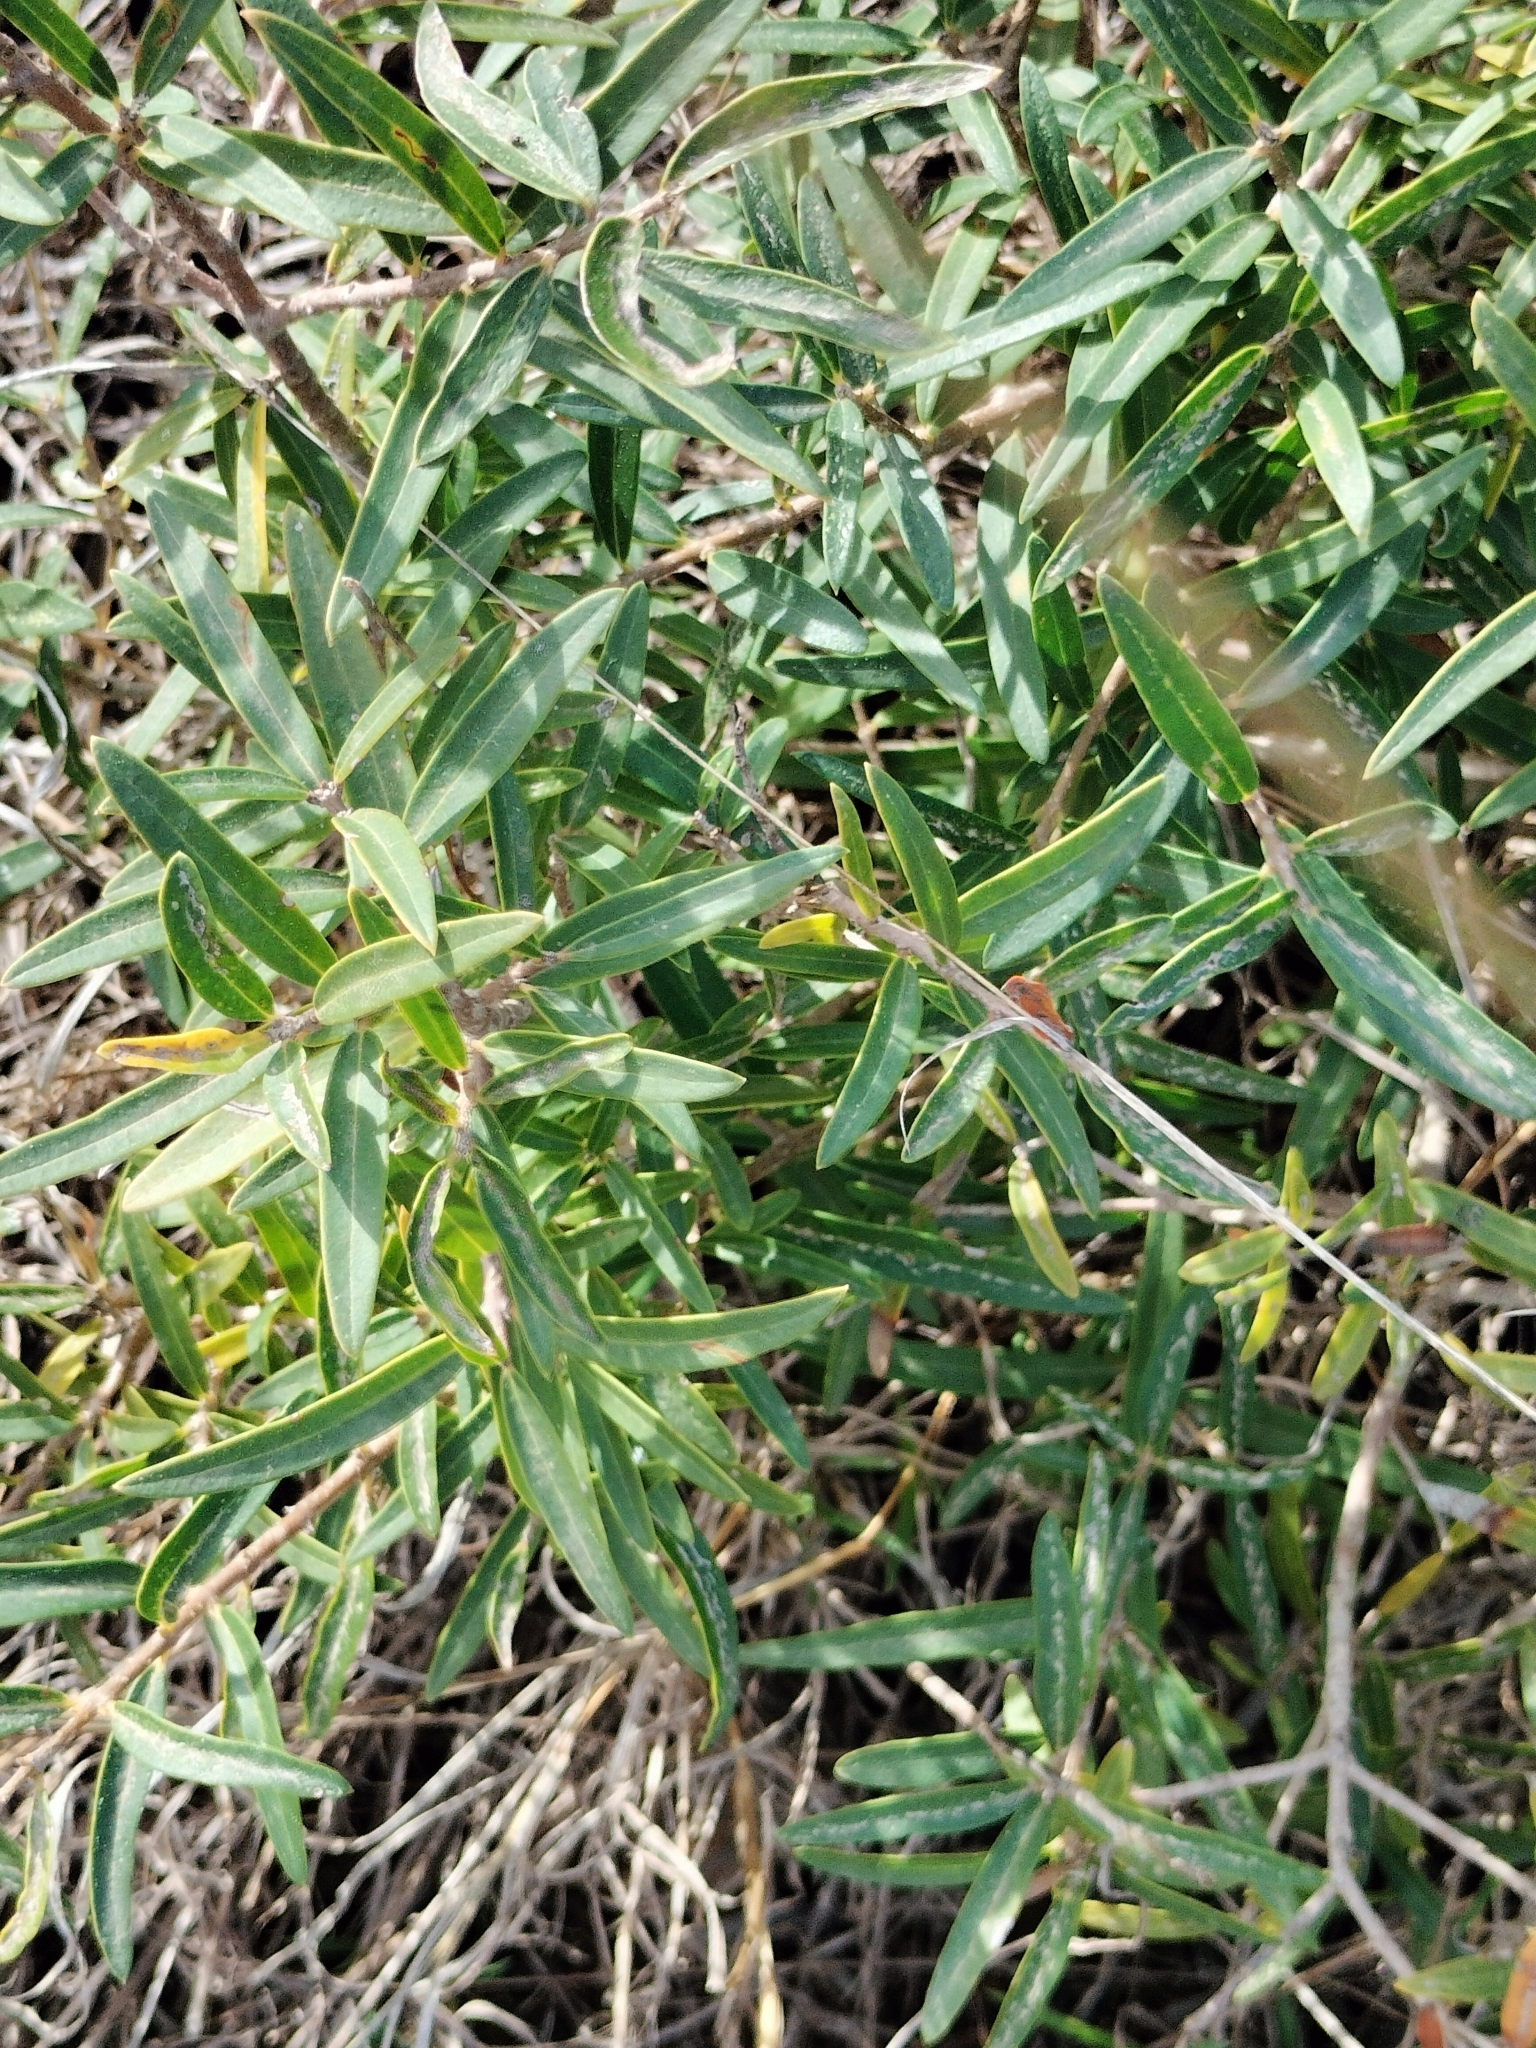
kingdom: Plantae
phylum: Tracheophyta
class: Magnoliopsida
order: Lamiales
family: Oleaceae
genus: Phillyrea
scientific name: Phillyrea angustifolia
